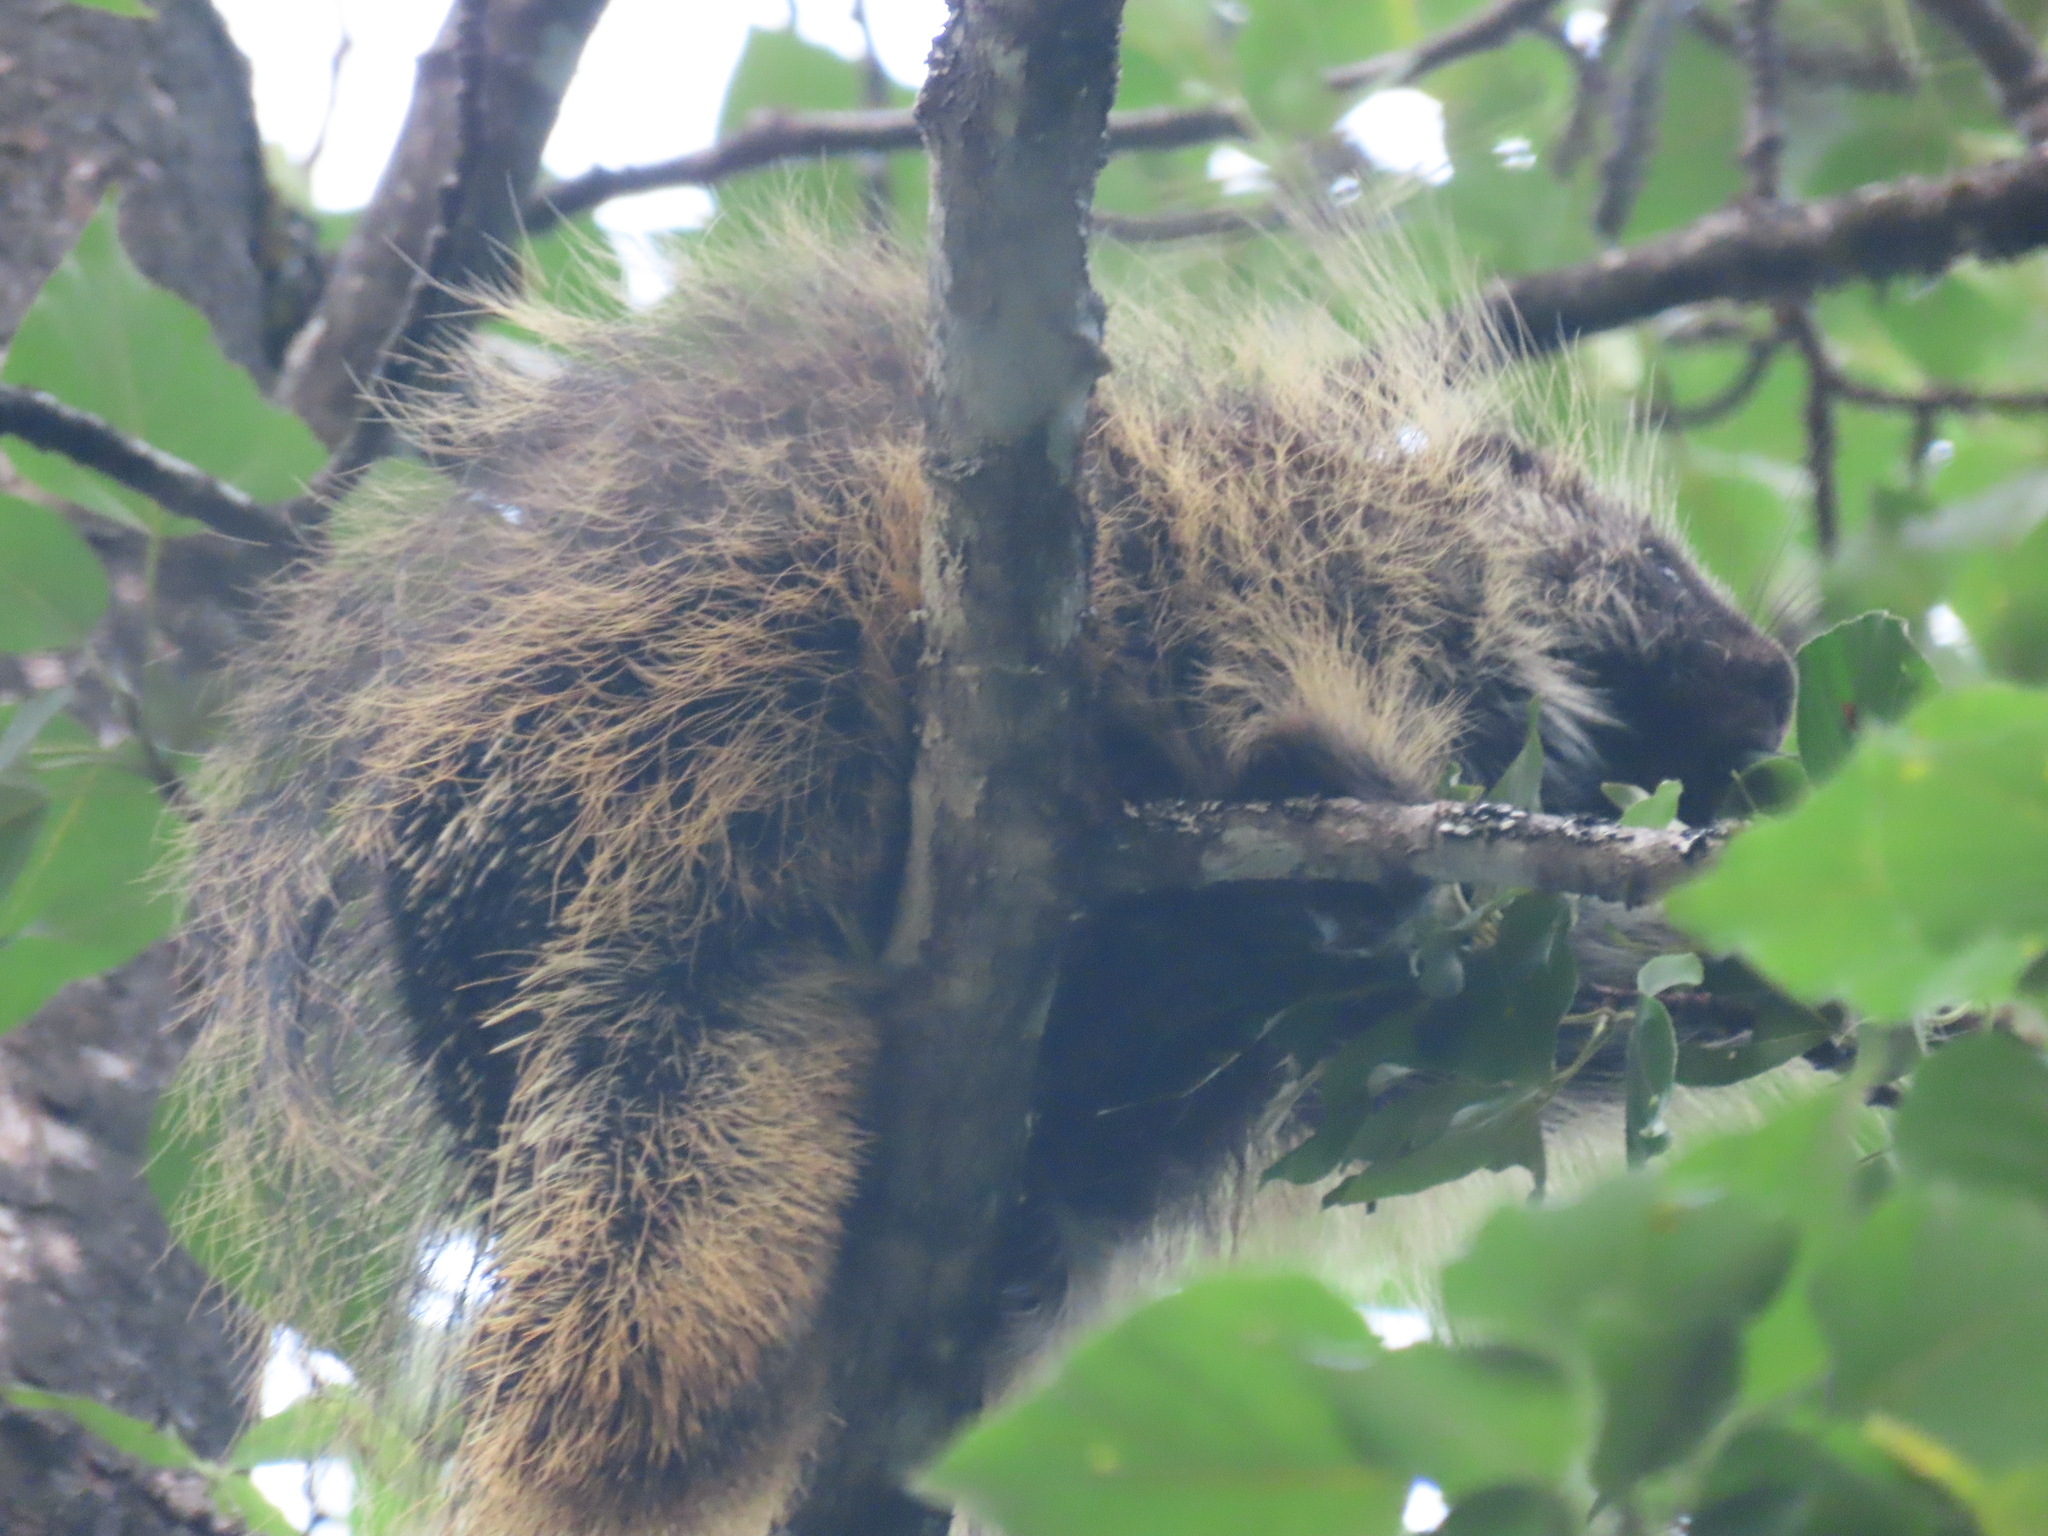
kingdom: Animalia
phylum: Chordata
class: Mammalia
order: Rodentia
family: Erethizontidae
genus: Erethizon
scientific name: Erethizon dorsatus
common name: North american porcupine
